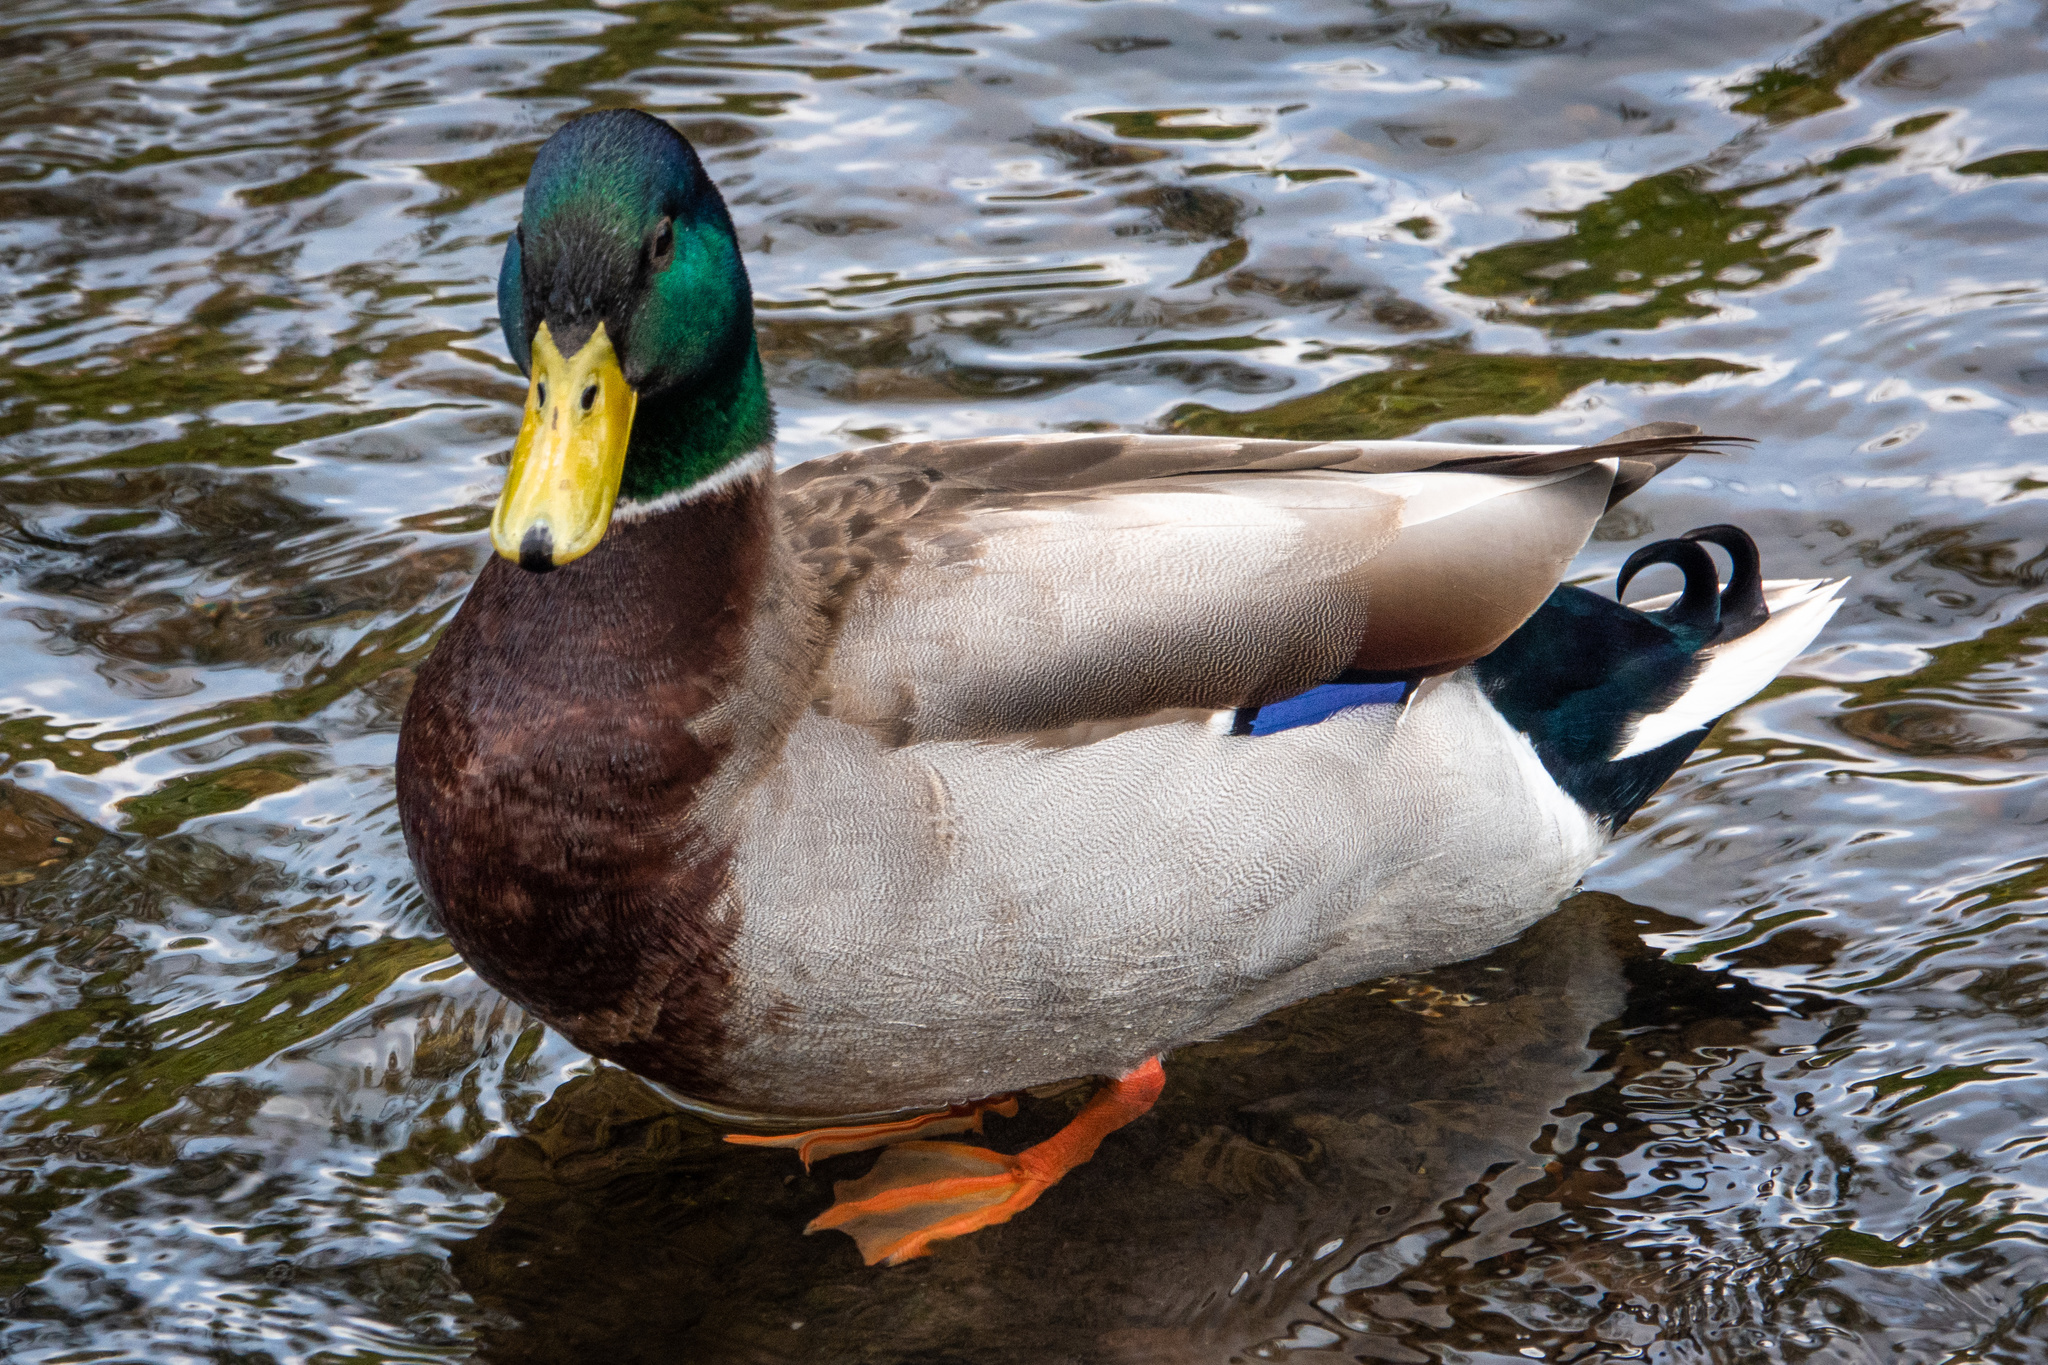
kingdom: Animalia
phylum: Chordata
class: Aves
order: Anseriformes
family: Anatidae
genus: Anas
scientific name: Anas platyrhynchos
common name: Mallard
